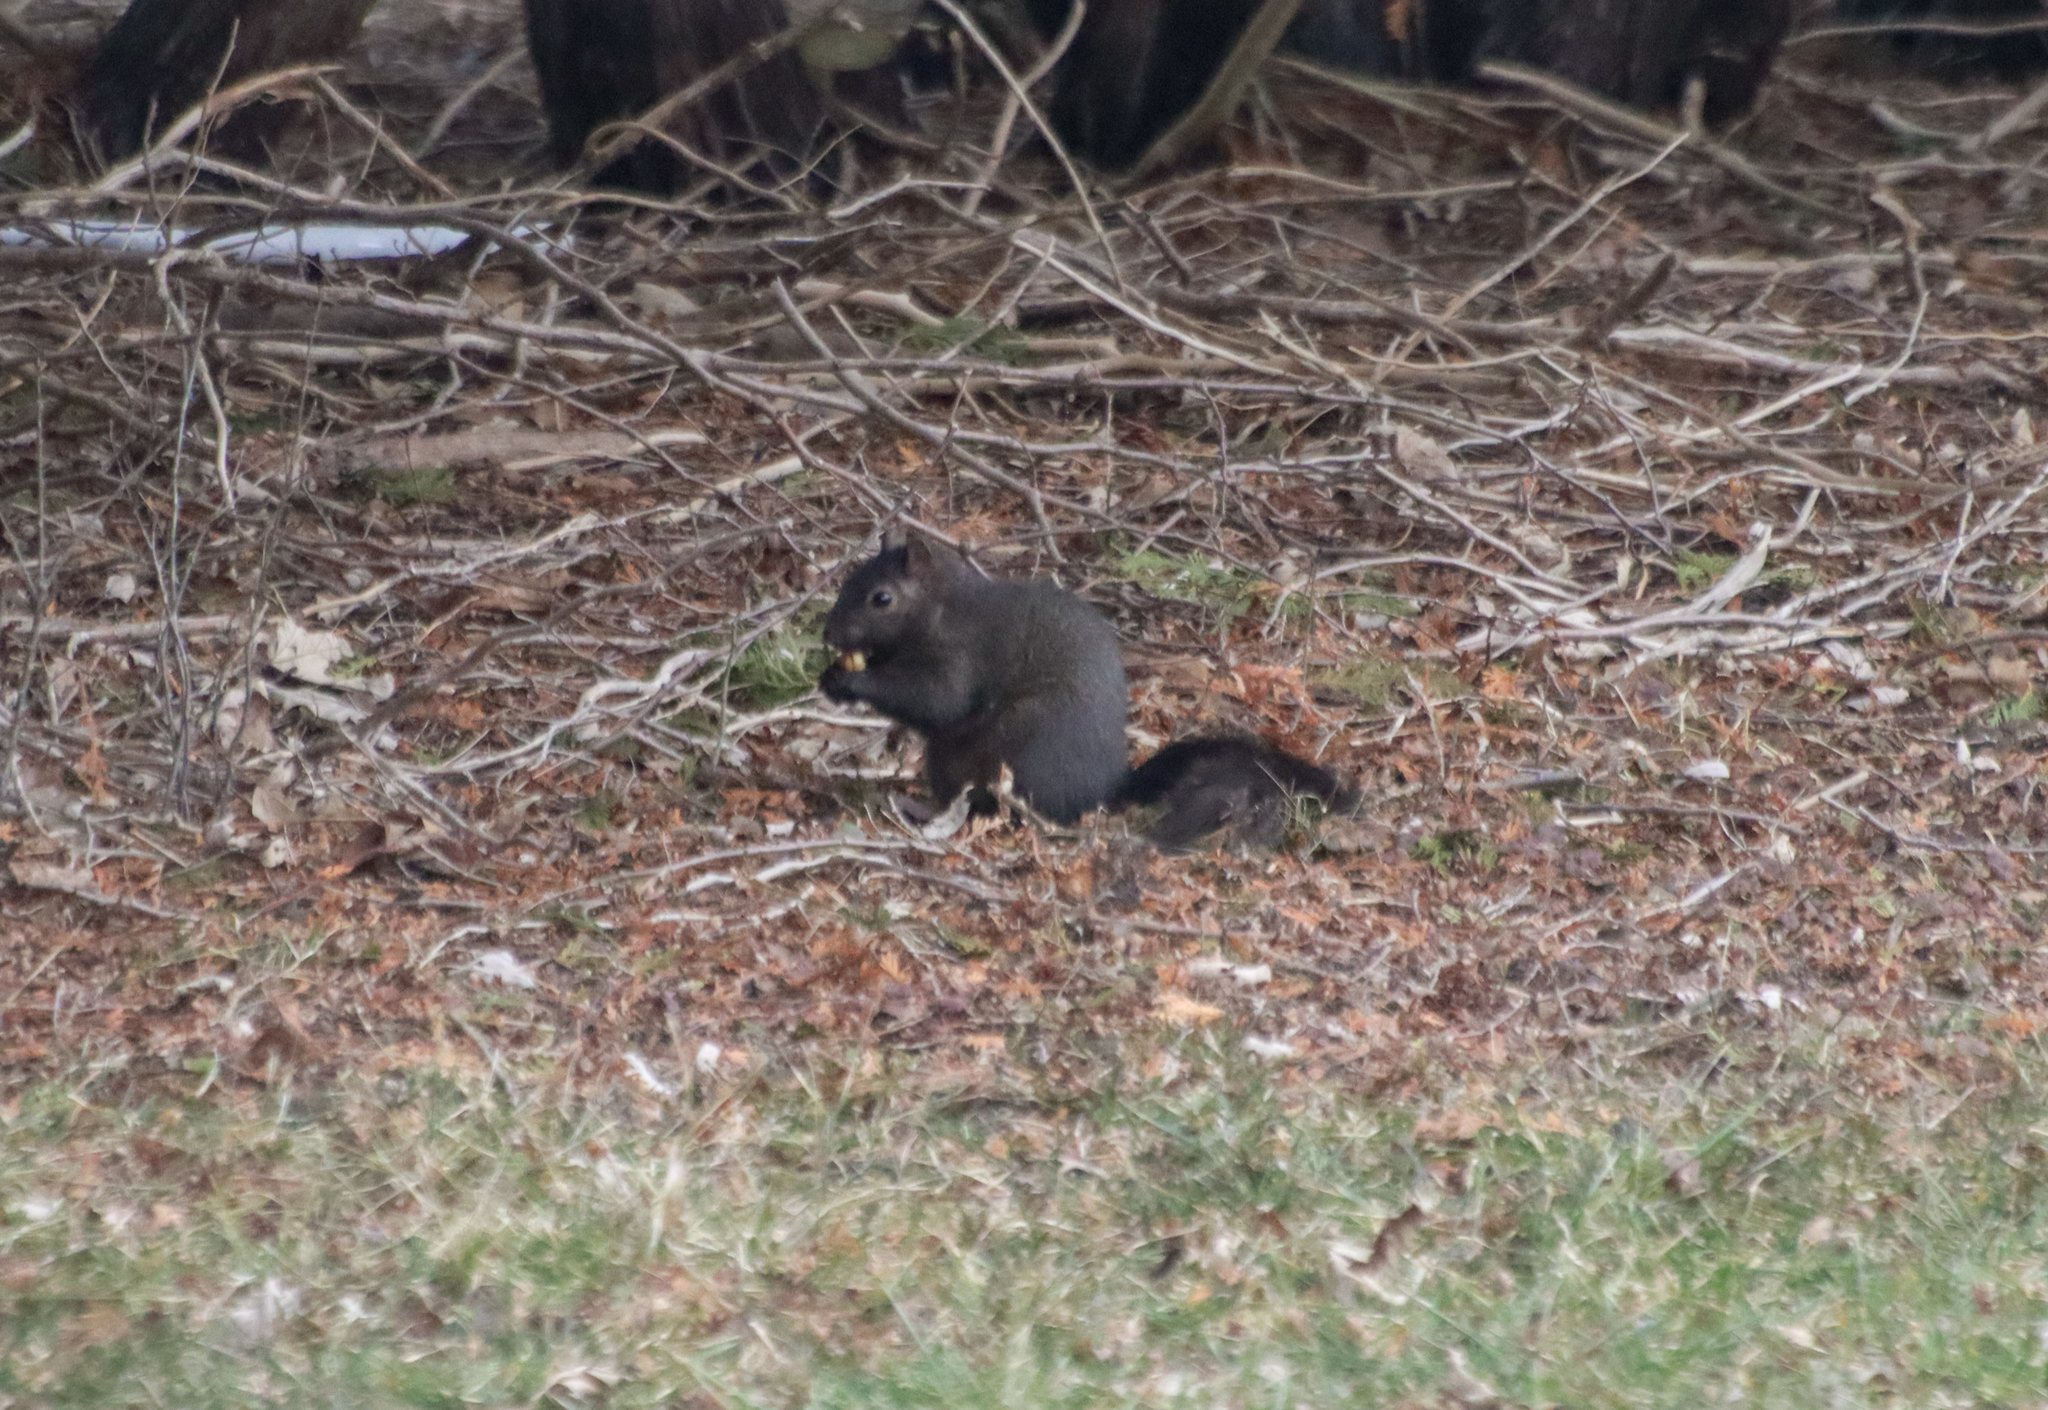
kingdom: Animalia
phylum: Chordata
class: Mammalia
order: Rodentia
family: Sciuridae
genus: Sciurus
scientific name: Sciurus carolinensis
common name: Eastern gray squirrel
